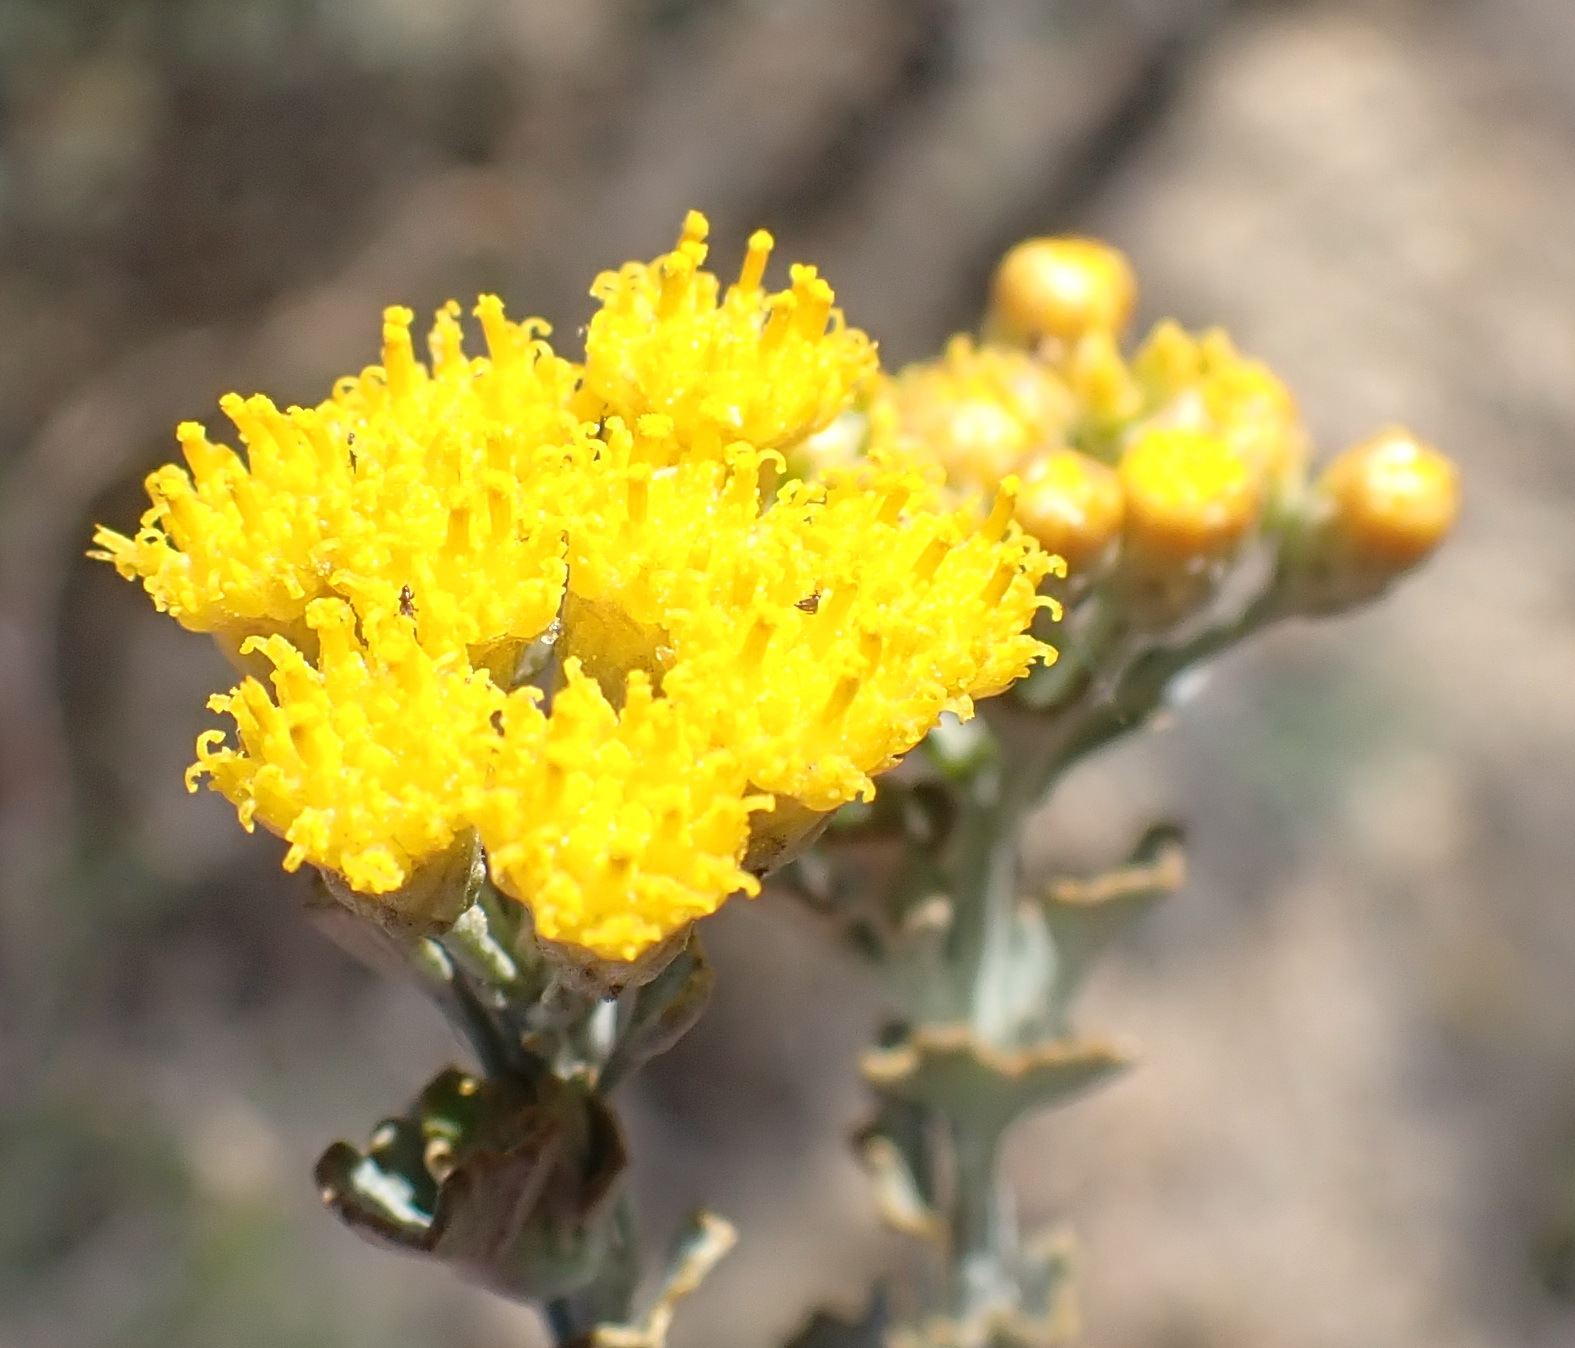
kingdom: Plantae
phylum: Tracheophyta
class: Magnoliopsida
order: Asterales
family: Asteraceae
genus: Pentzia
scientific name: Pentzia dentata
